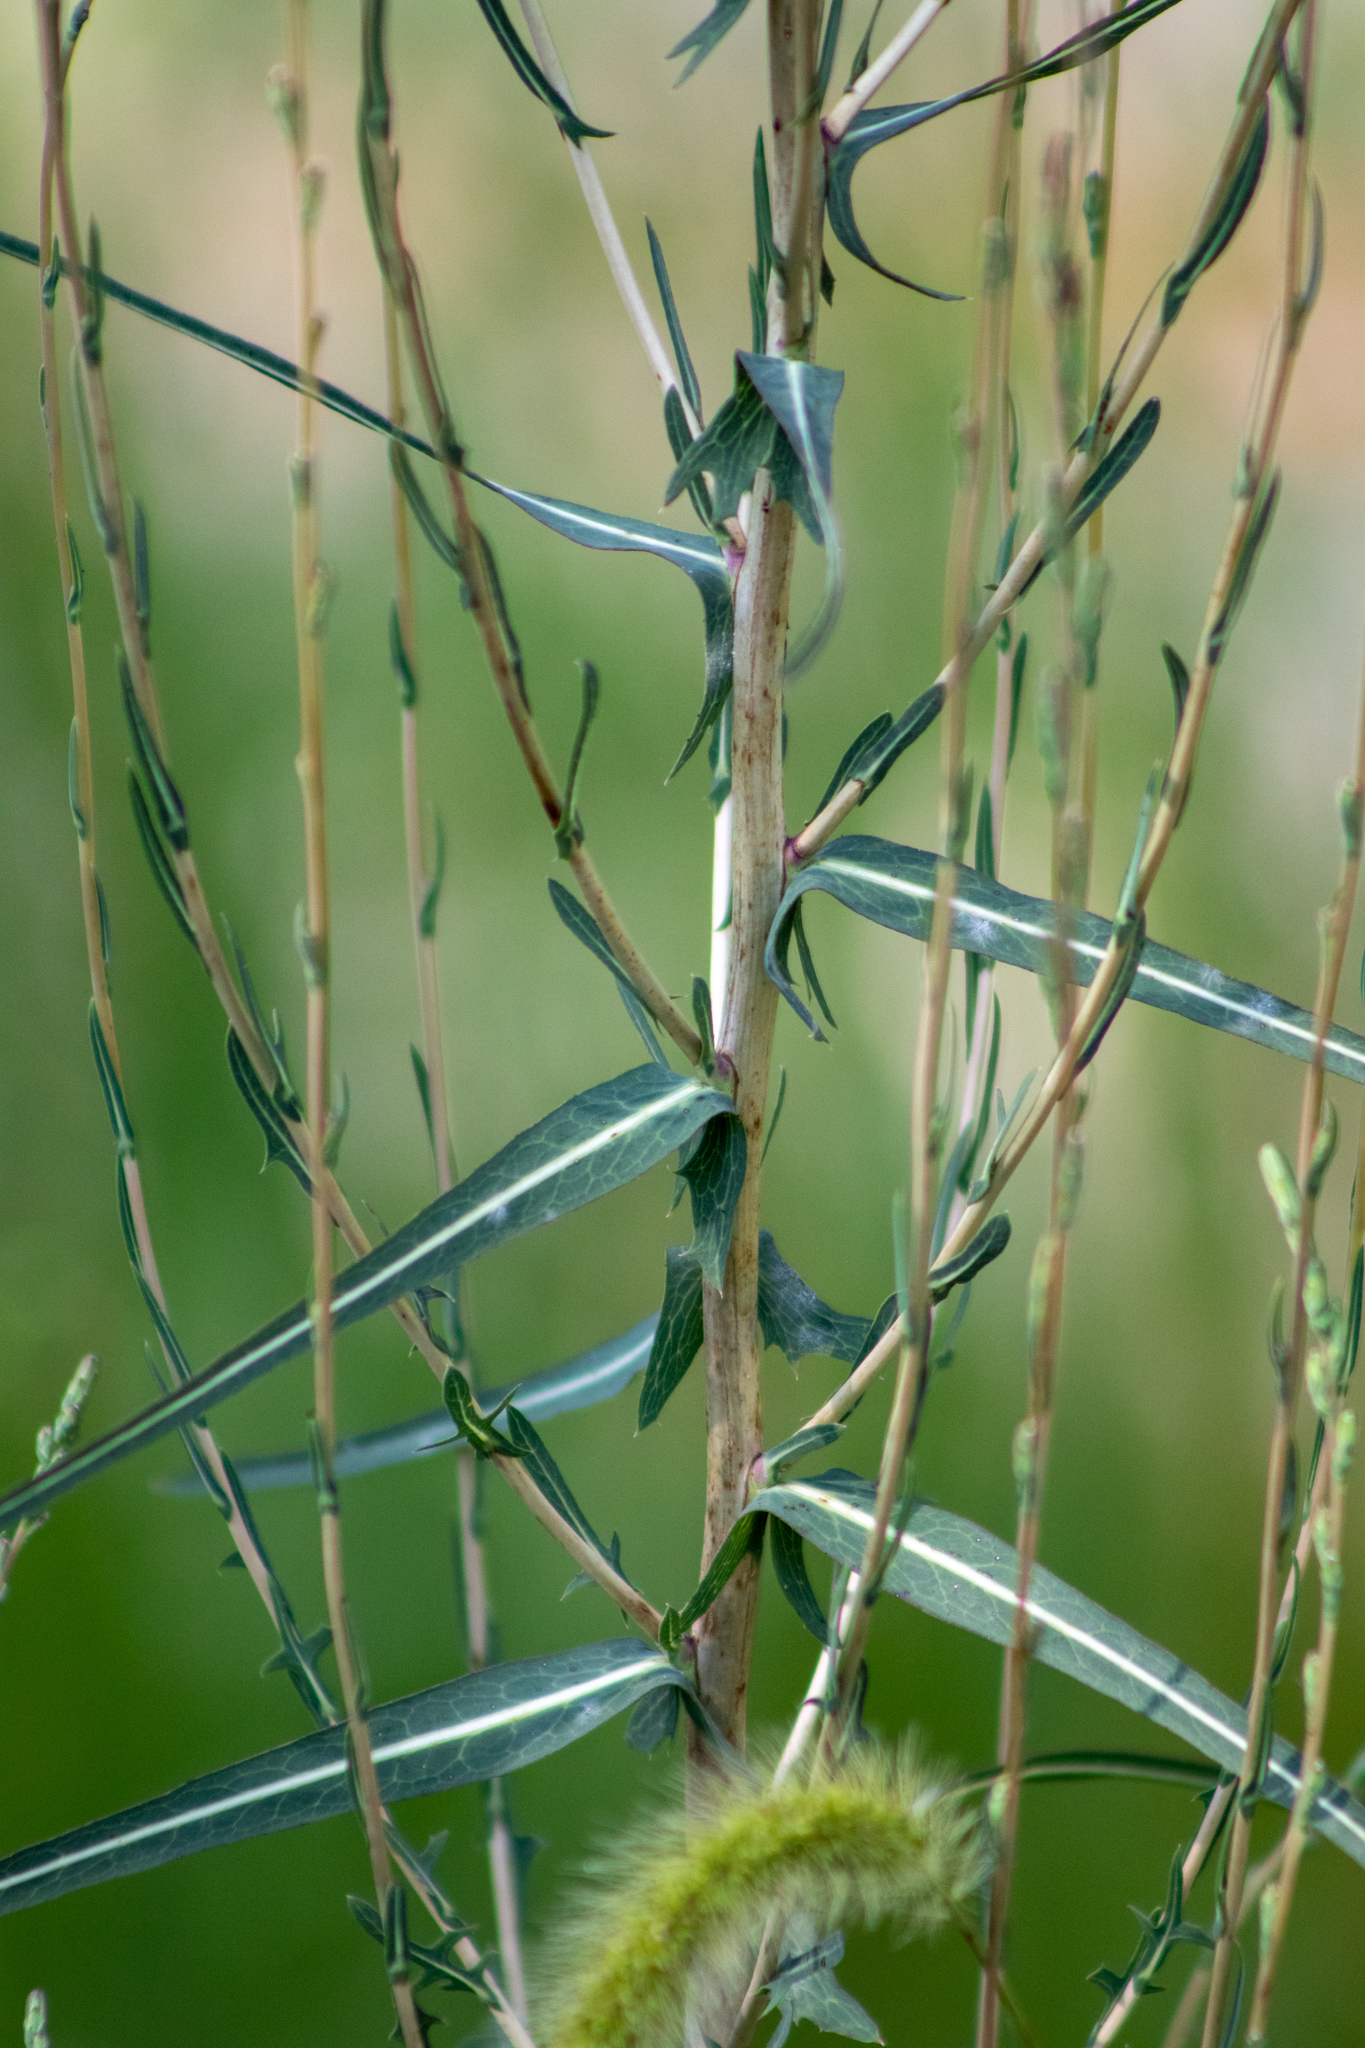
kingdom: Plantae
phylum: Tracheophyta
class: Magnoliopsida
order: Asterales
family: Asteraceae
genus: Lactuca
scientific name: Lactuca saligna
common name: Wild lettuce
